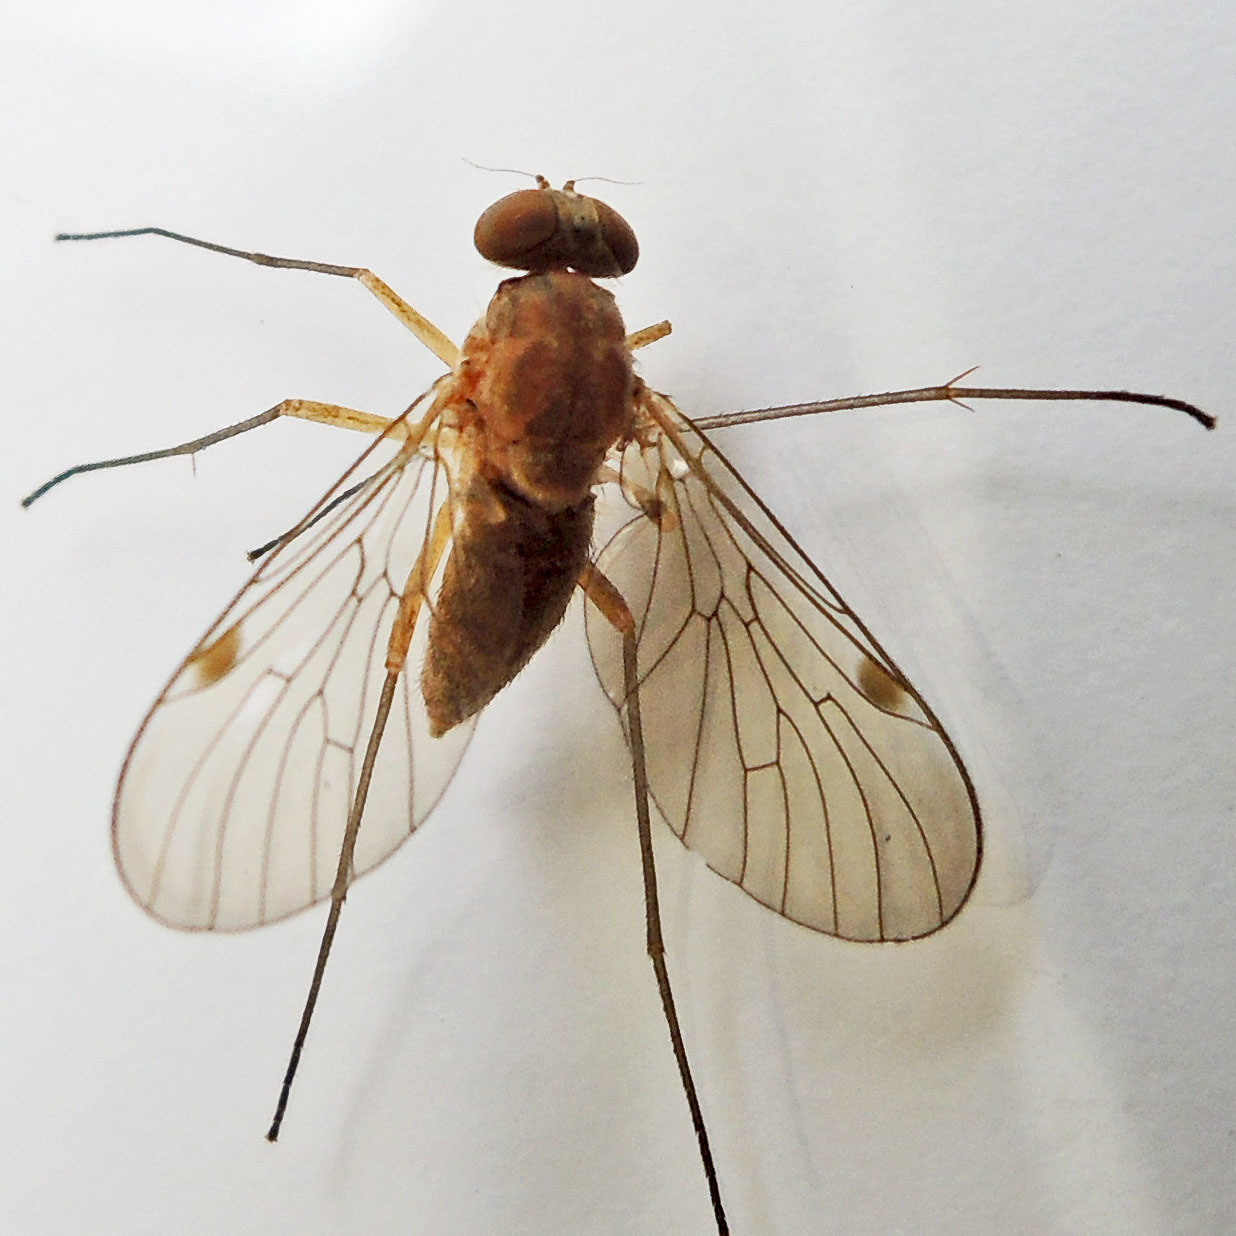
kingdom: Animalia
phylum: Arthropoda
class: Insecta
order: Diptera
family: Rhagionidae
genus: Chrysopilus
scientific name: Chrysopilus rotundipennis
